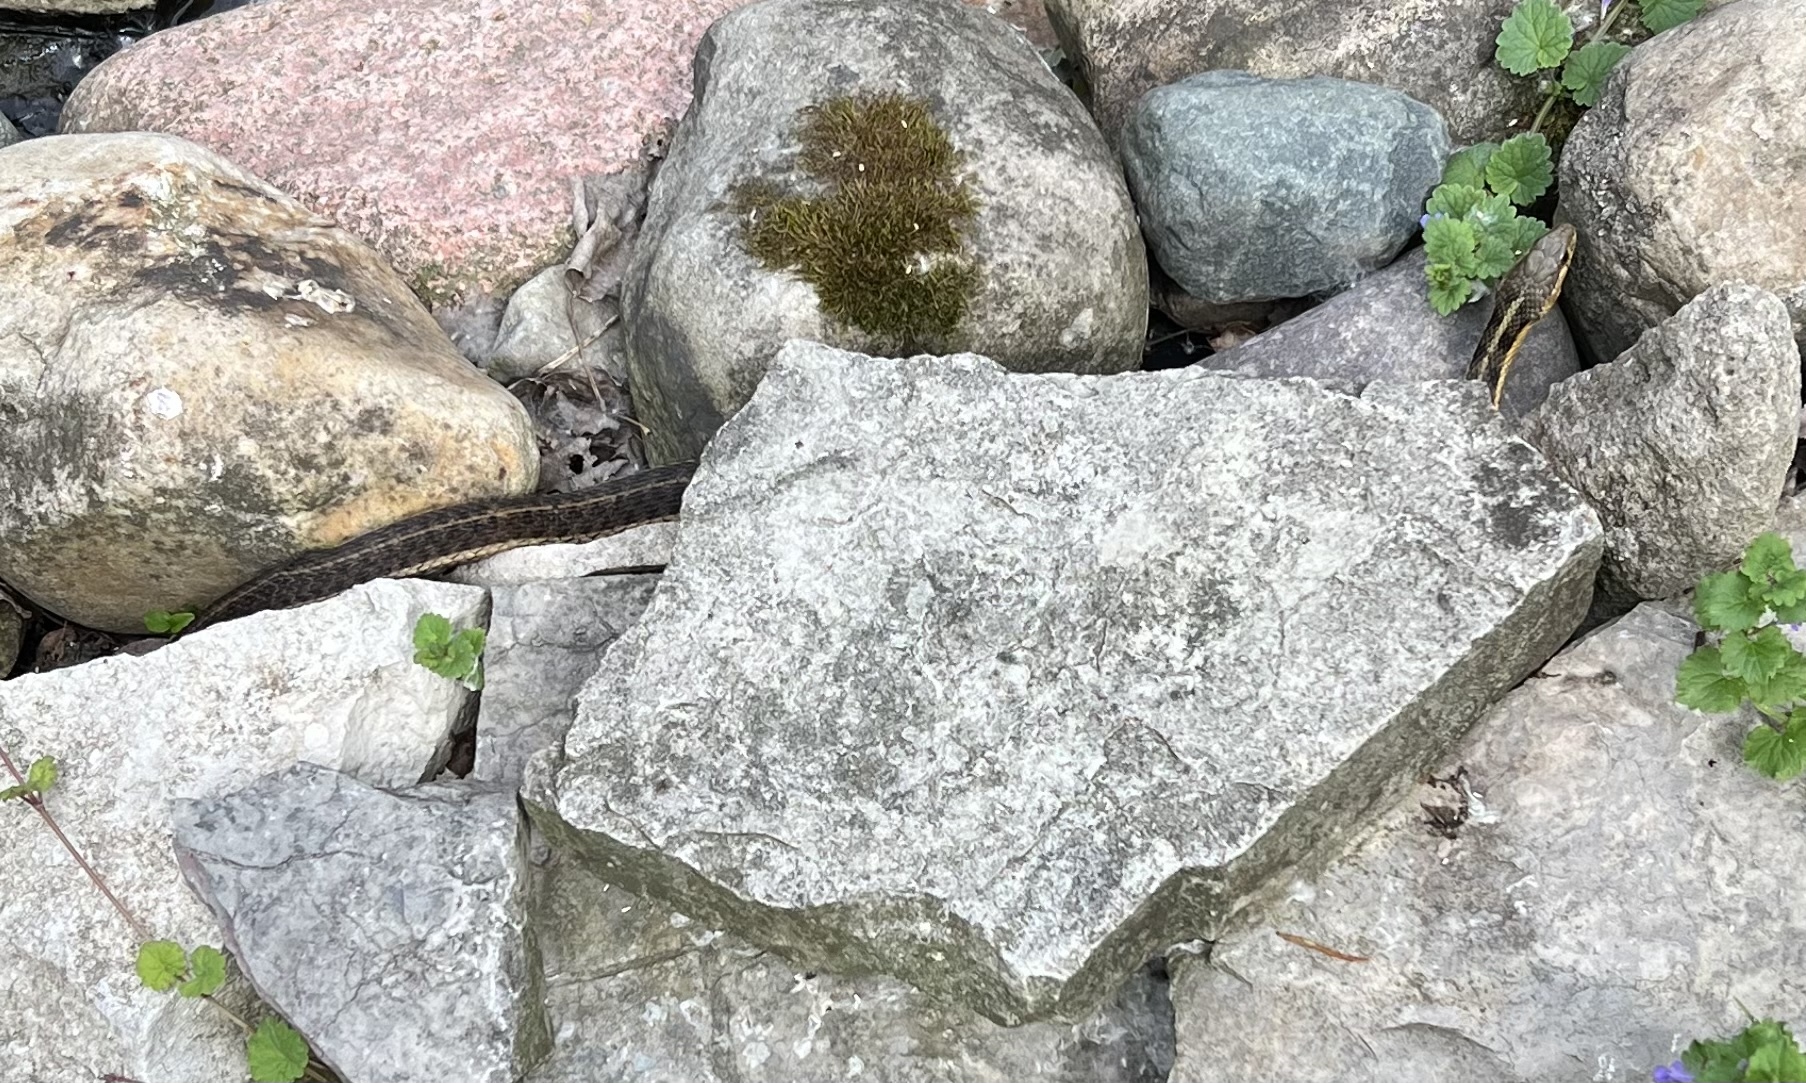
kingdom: Animalia
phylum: Chordata
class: Squamata
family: Colubridae
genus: Thamnophis
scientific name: Thamnophis sirtalis
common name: Common garter snake
